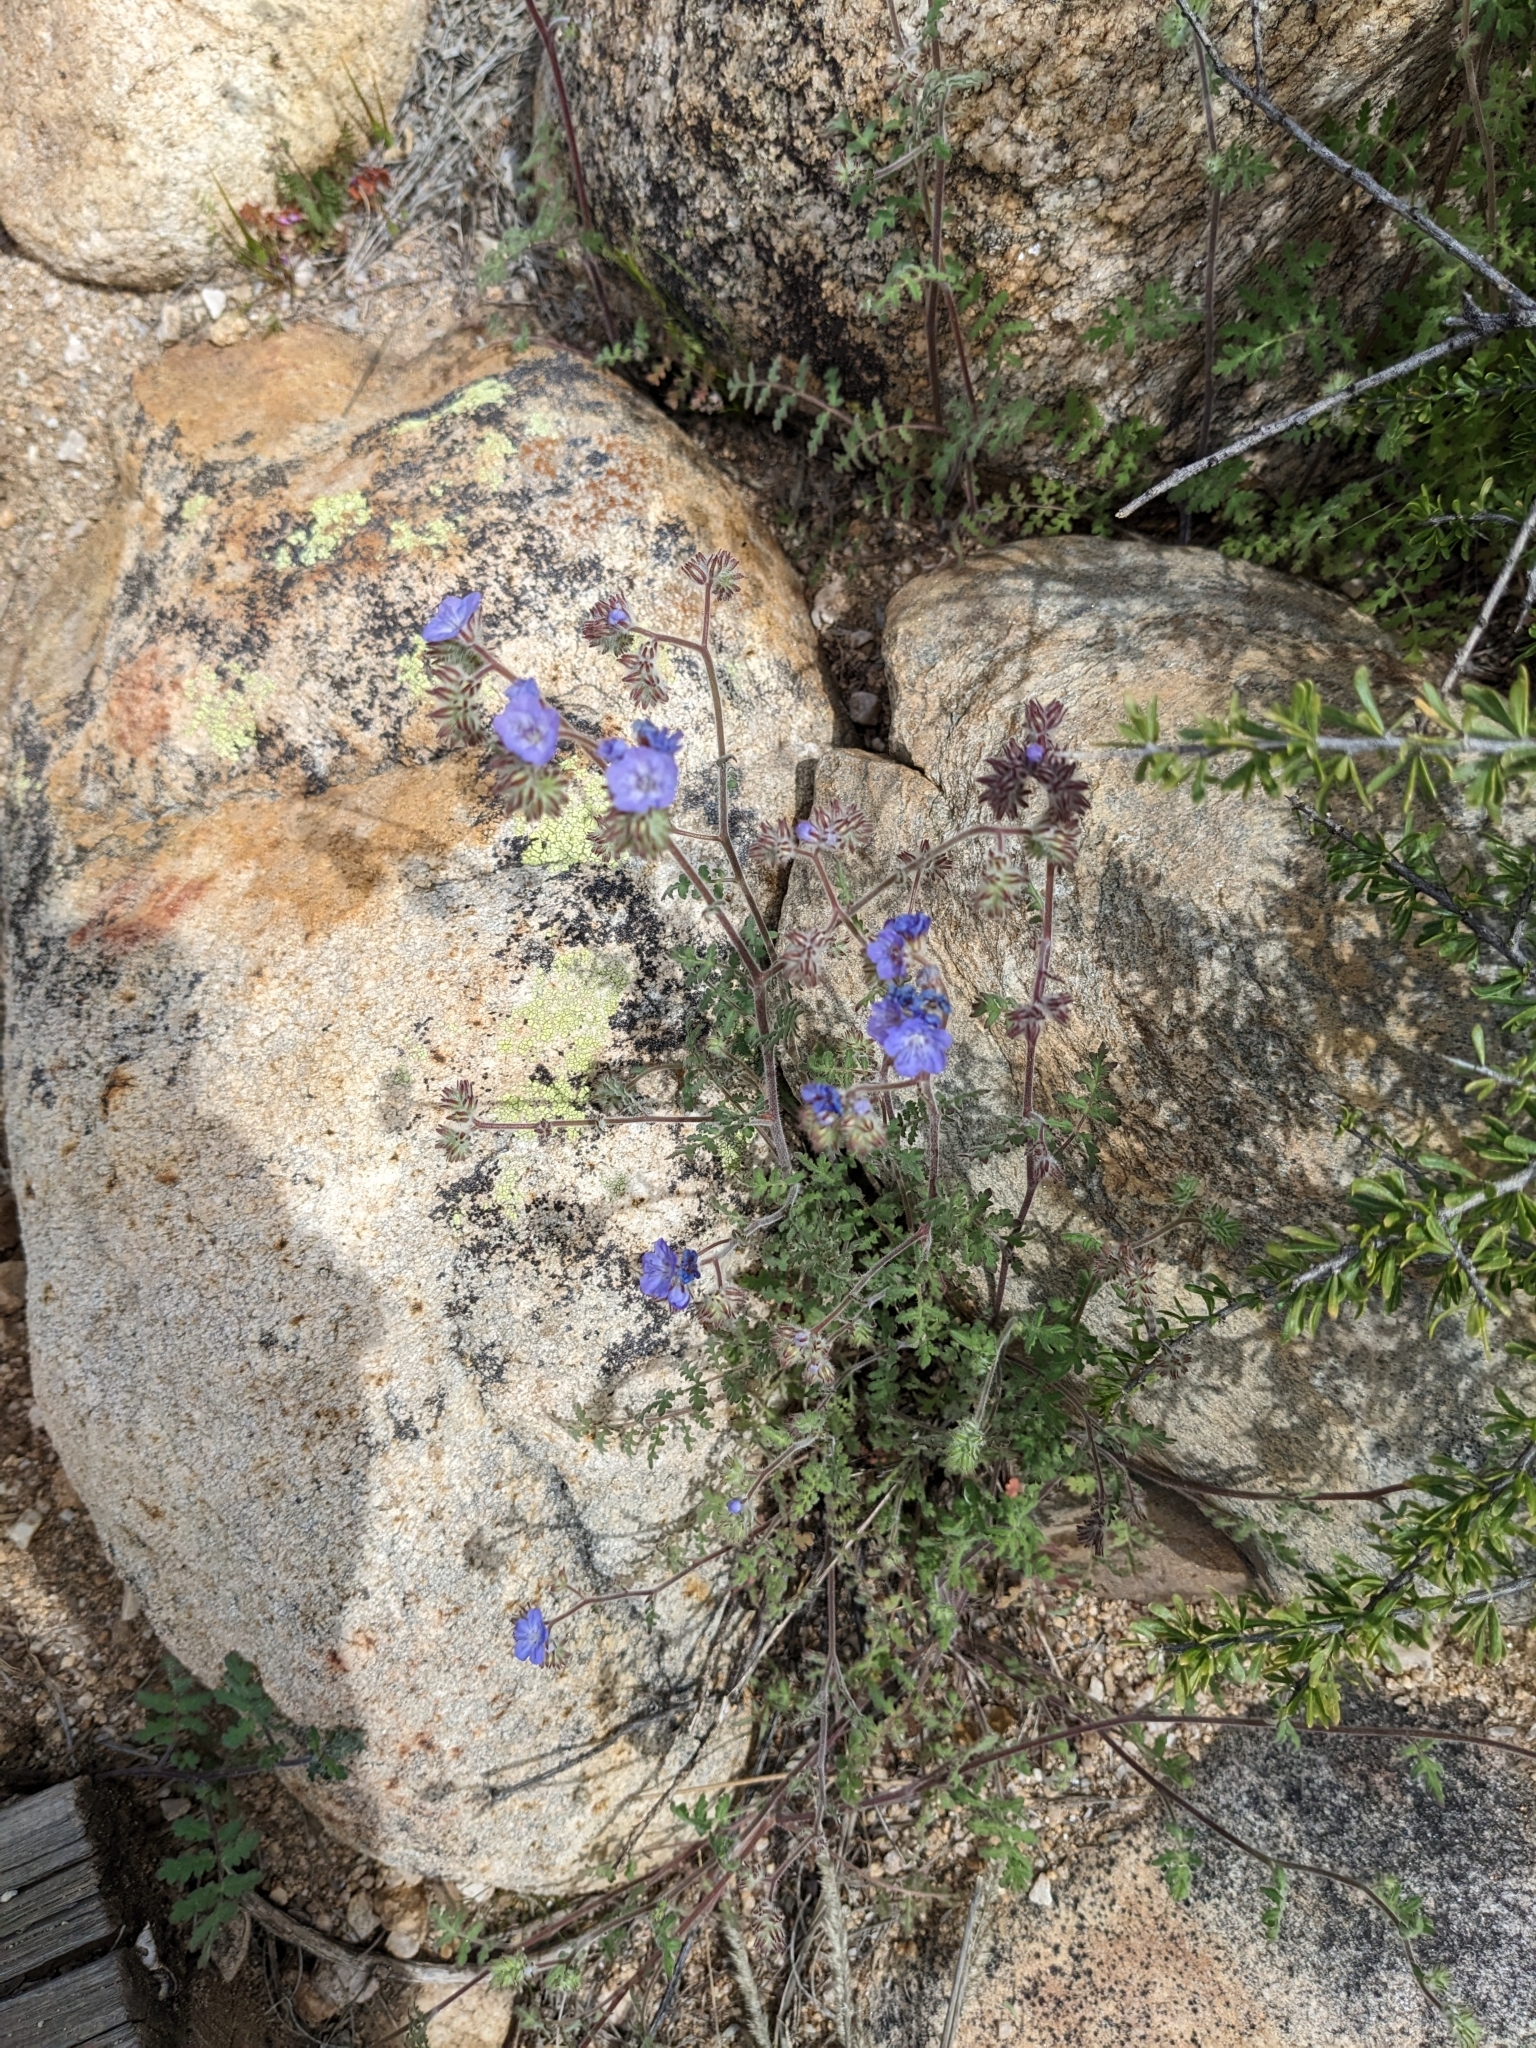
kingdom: Plantae
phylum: Tracheophyta
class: Magnoliopsida
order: Boraginales
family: Hydrophyllaceae
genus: Phacelia
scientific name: Phacelia distans
